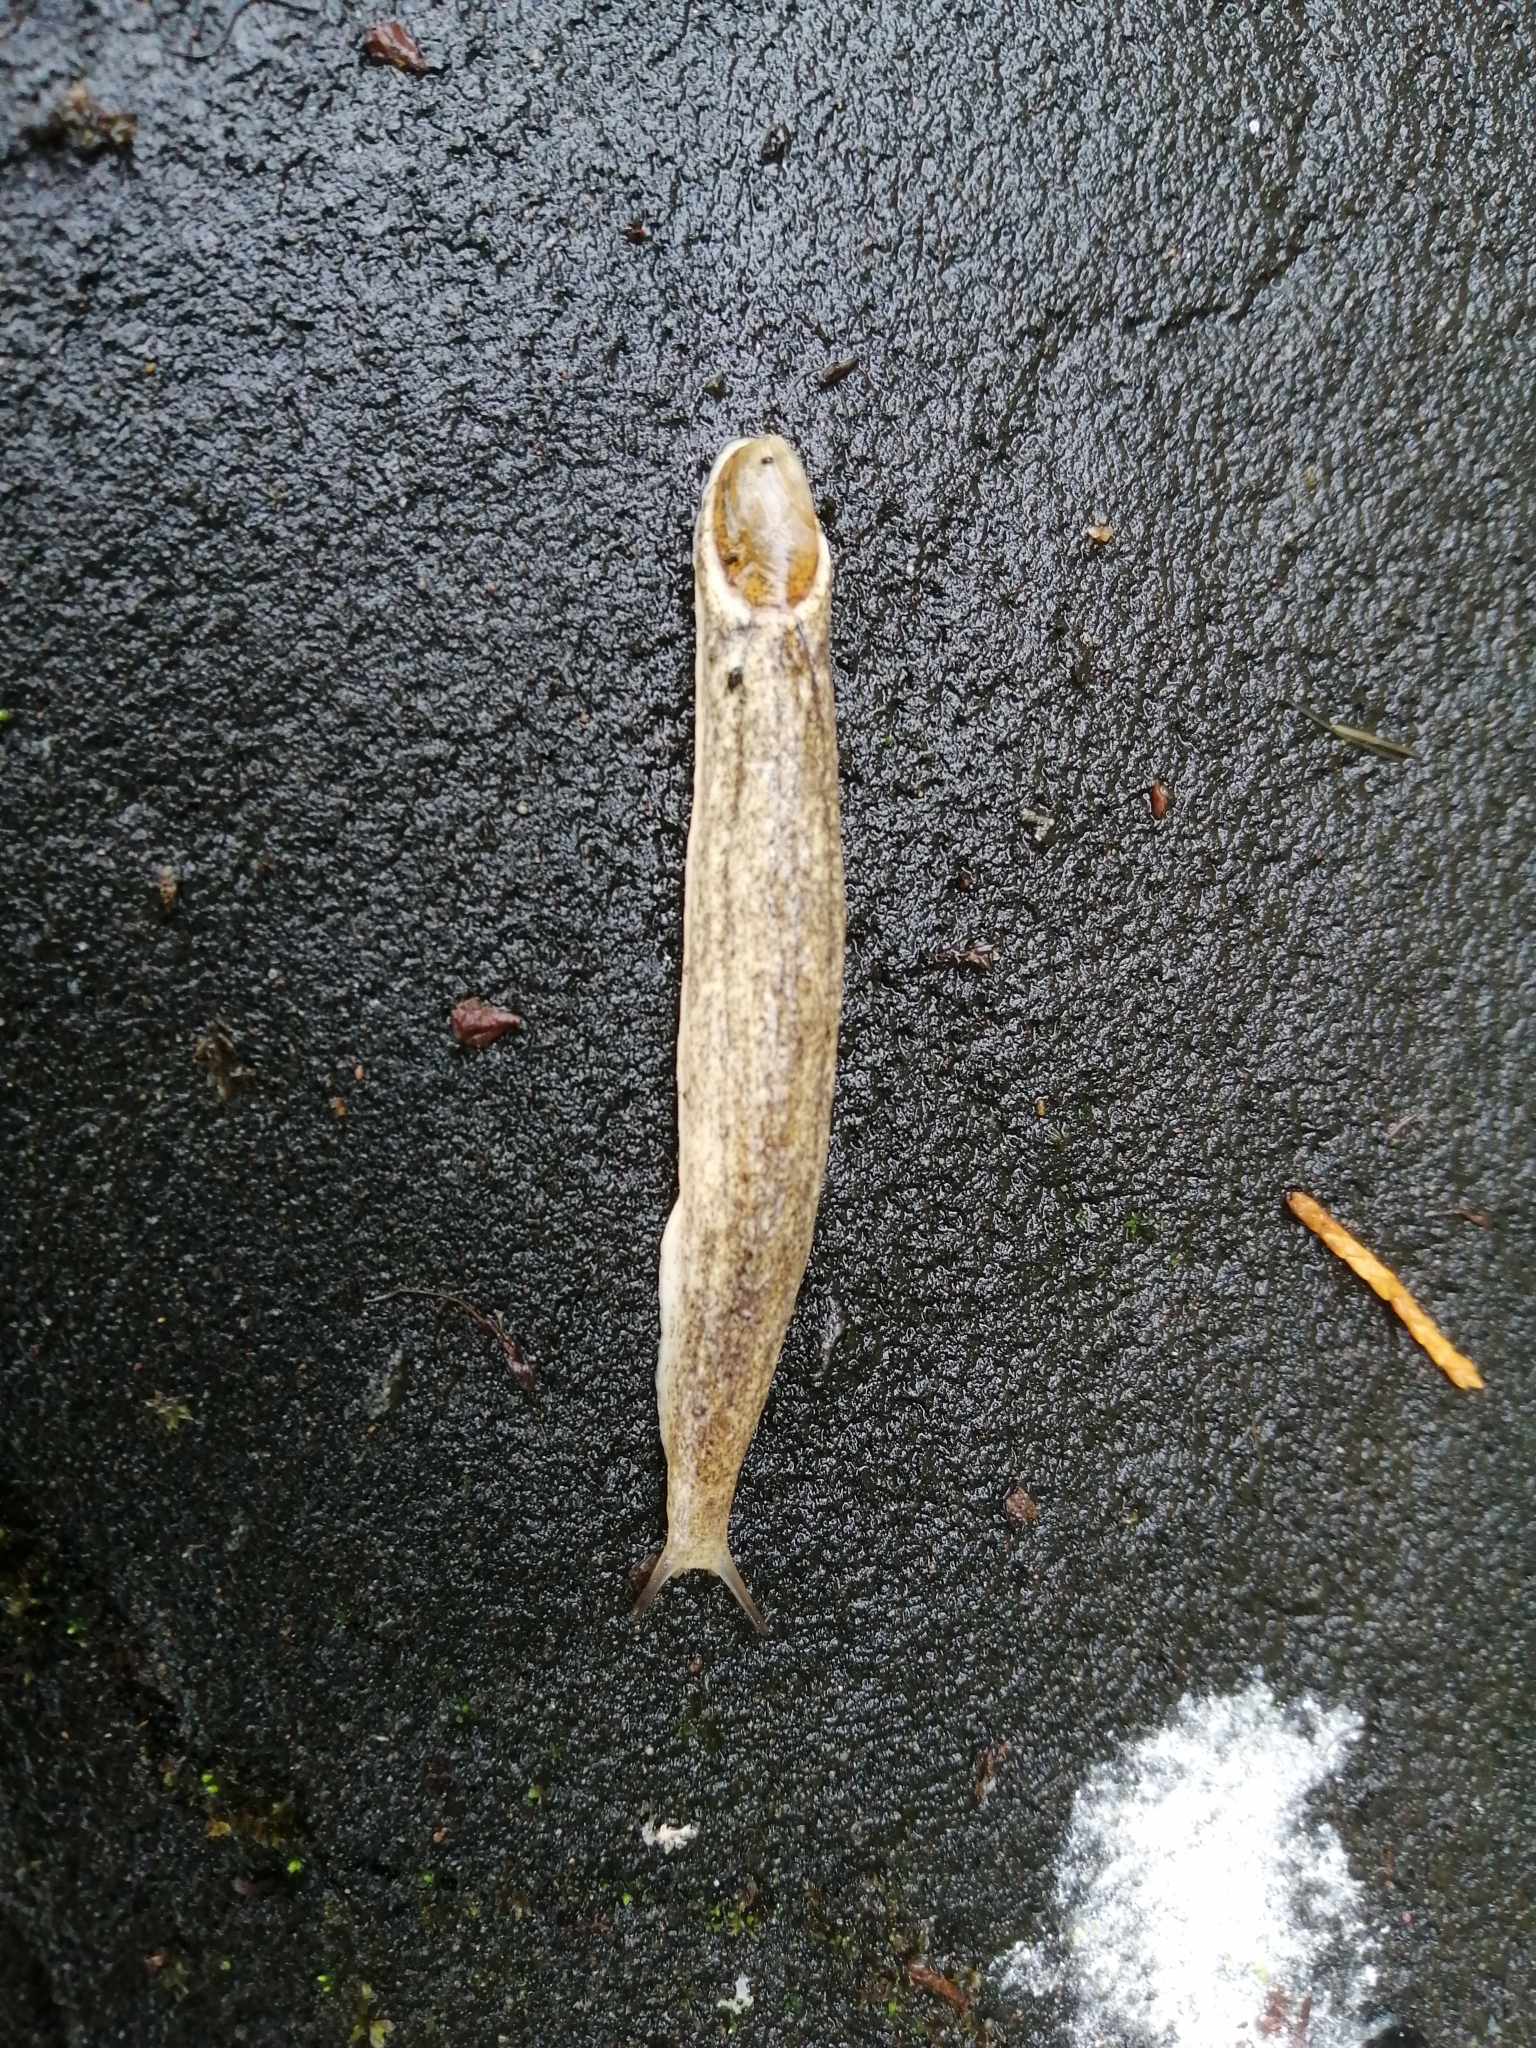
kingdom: Animalia
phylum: Mollusca
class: Gastropoda
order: Stylommatophora
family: Testacellidae
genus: Testacella
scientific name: Testacella maugei
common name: Mauge's slug
